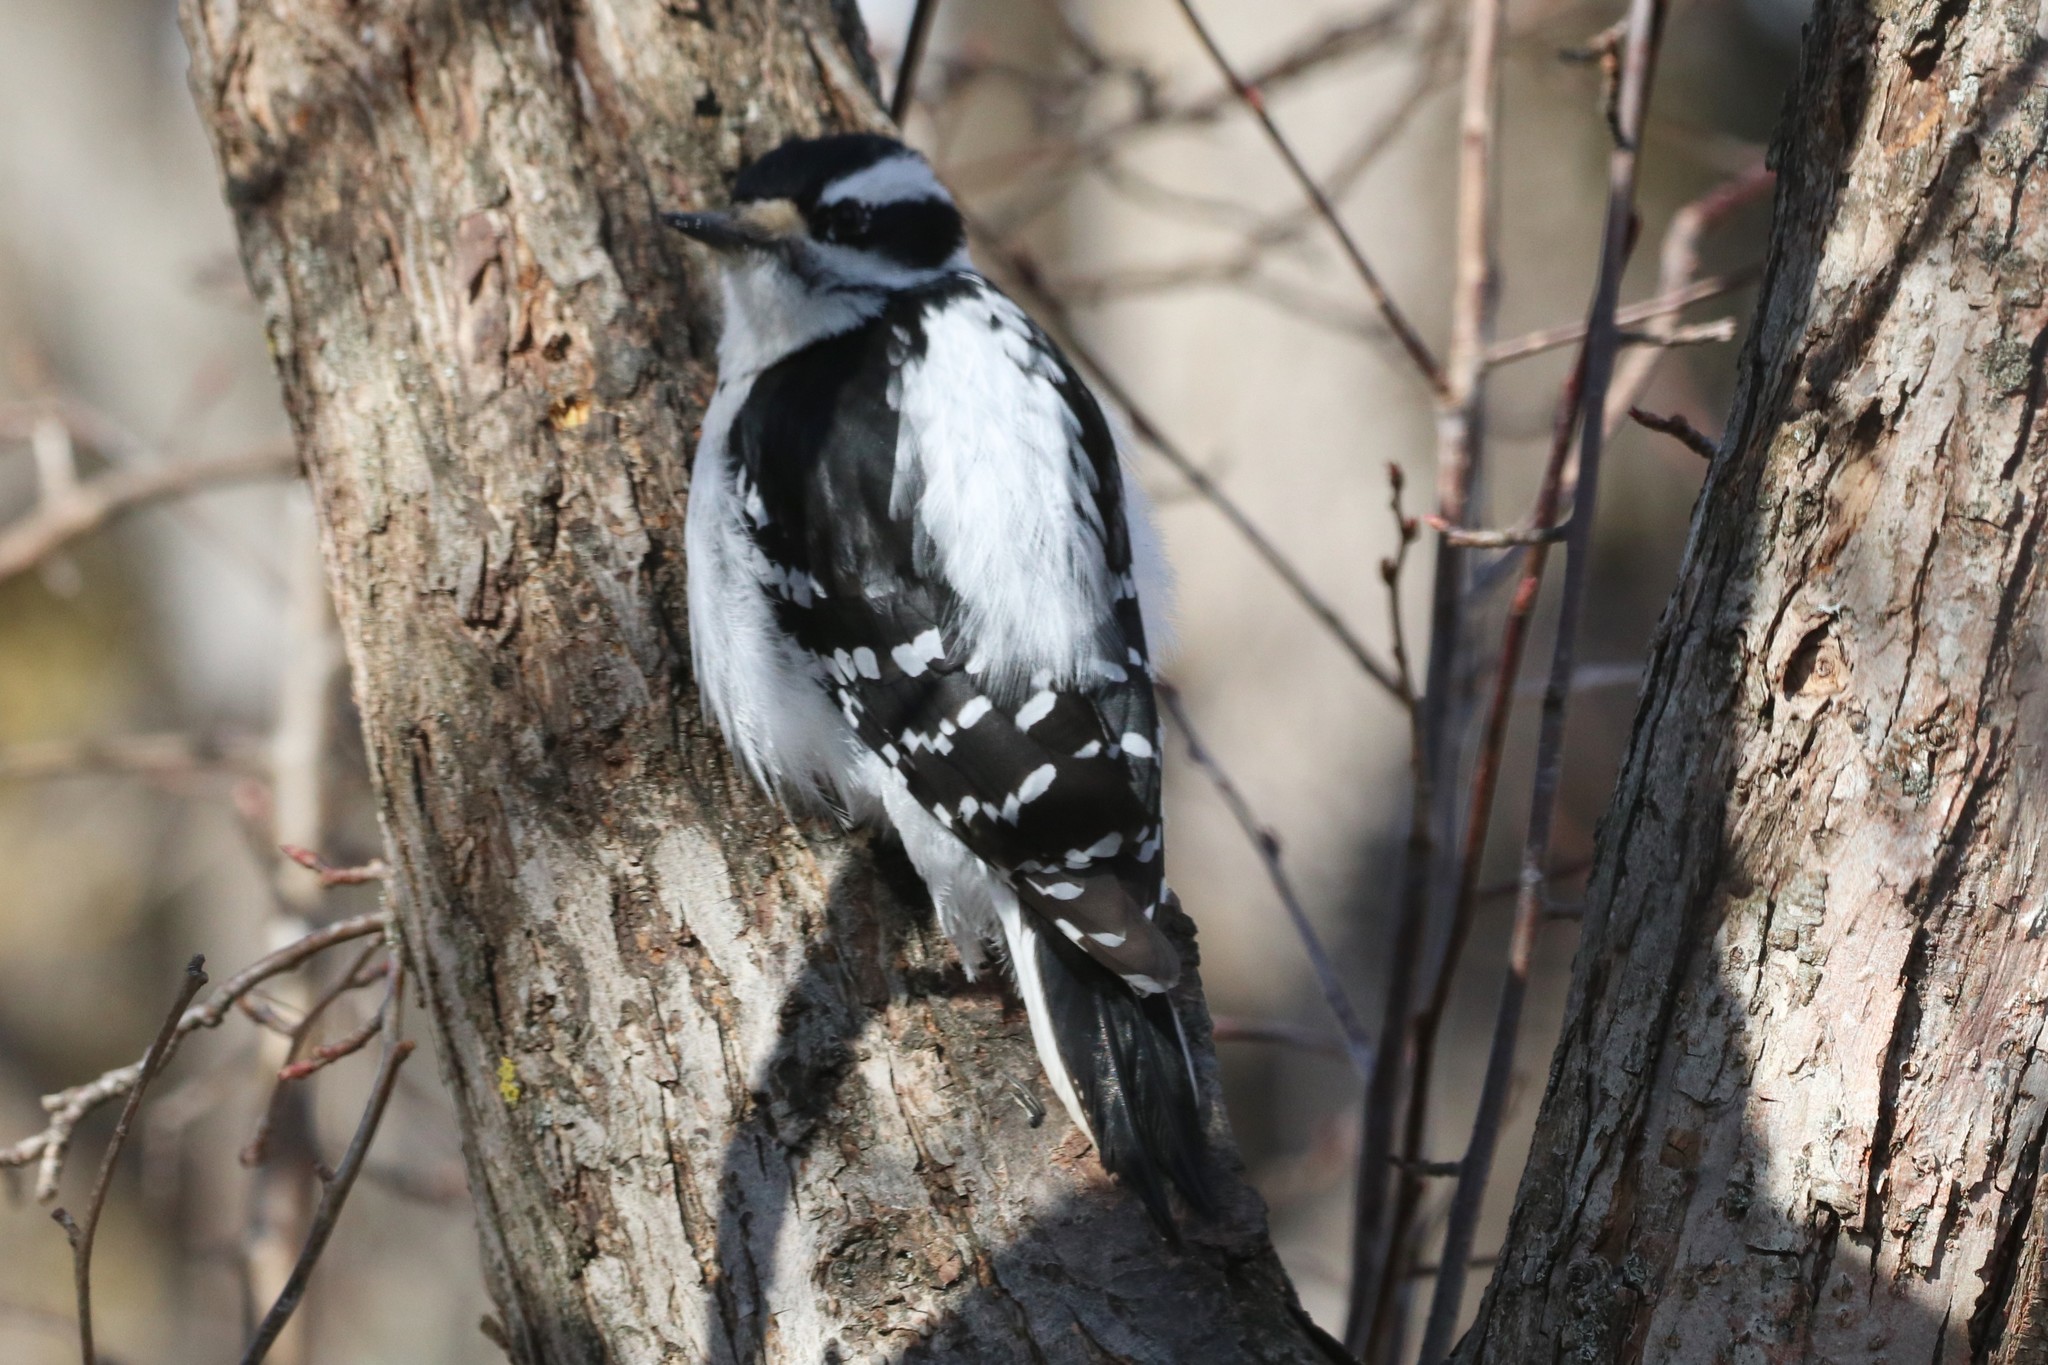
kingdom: Animalia
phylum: Chordata
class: Aves
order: Piciformes
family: Picidae
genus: Leuconotopicus
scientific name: Leuconotopicus villosus
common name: Hairy woodpecker
